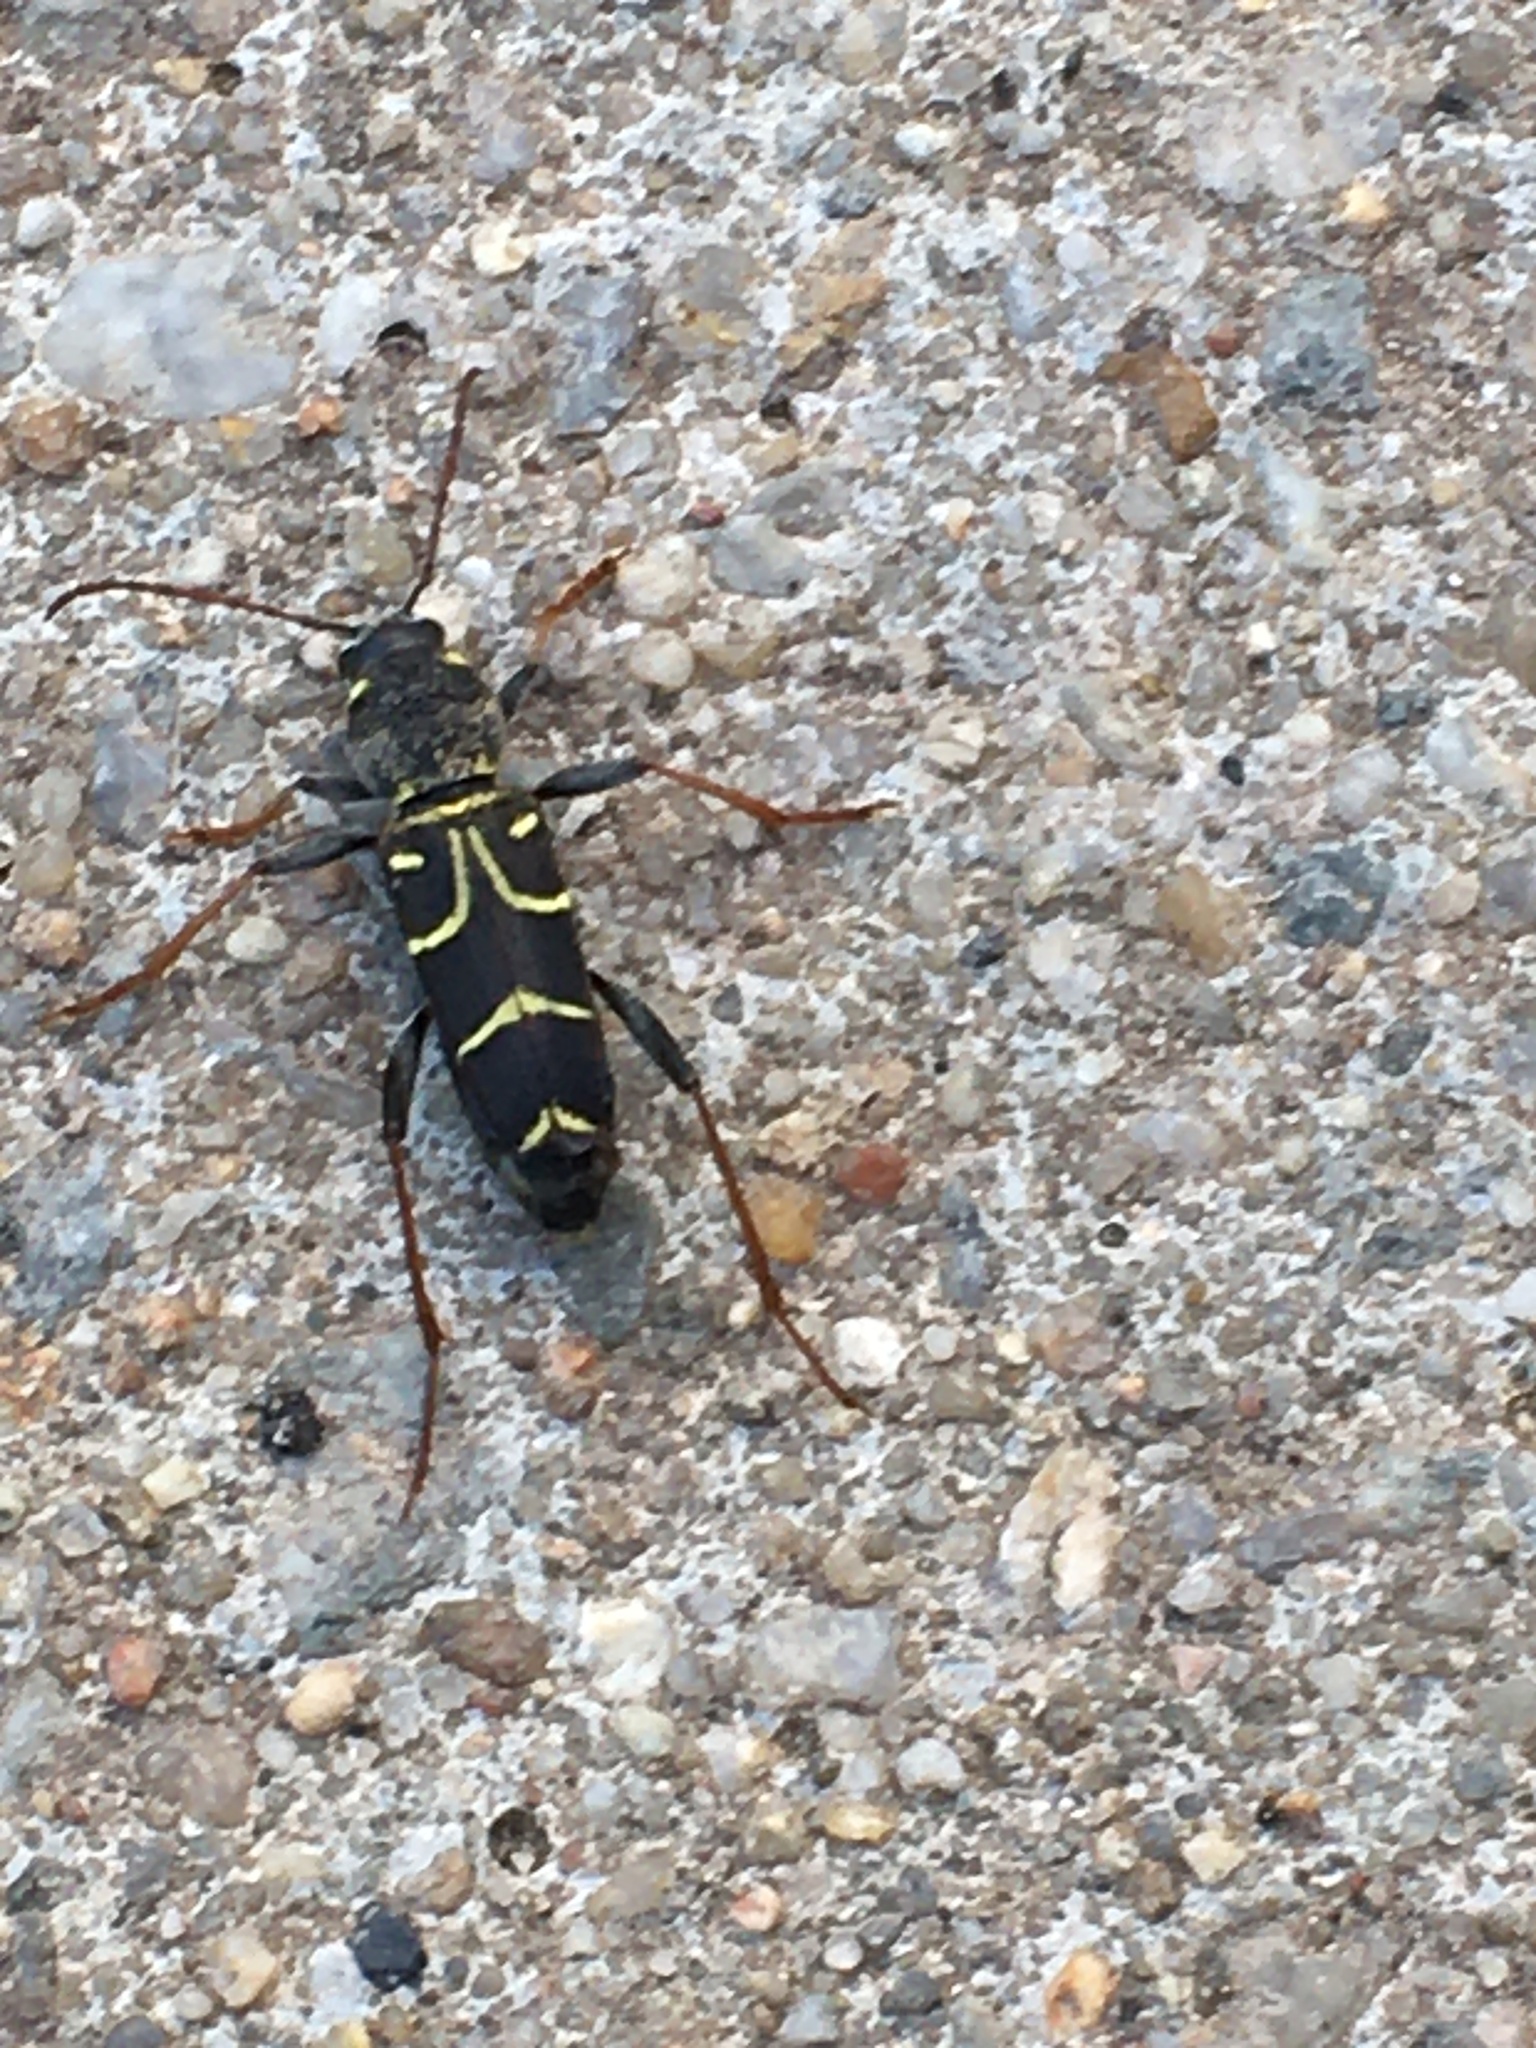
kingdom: Animalia
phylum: Arthropoda
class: Insecta
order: Coleoptera
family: Cerambycidae
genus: Xylotrechus
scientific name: Xylotrechus antilope
